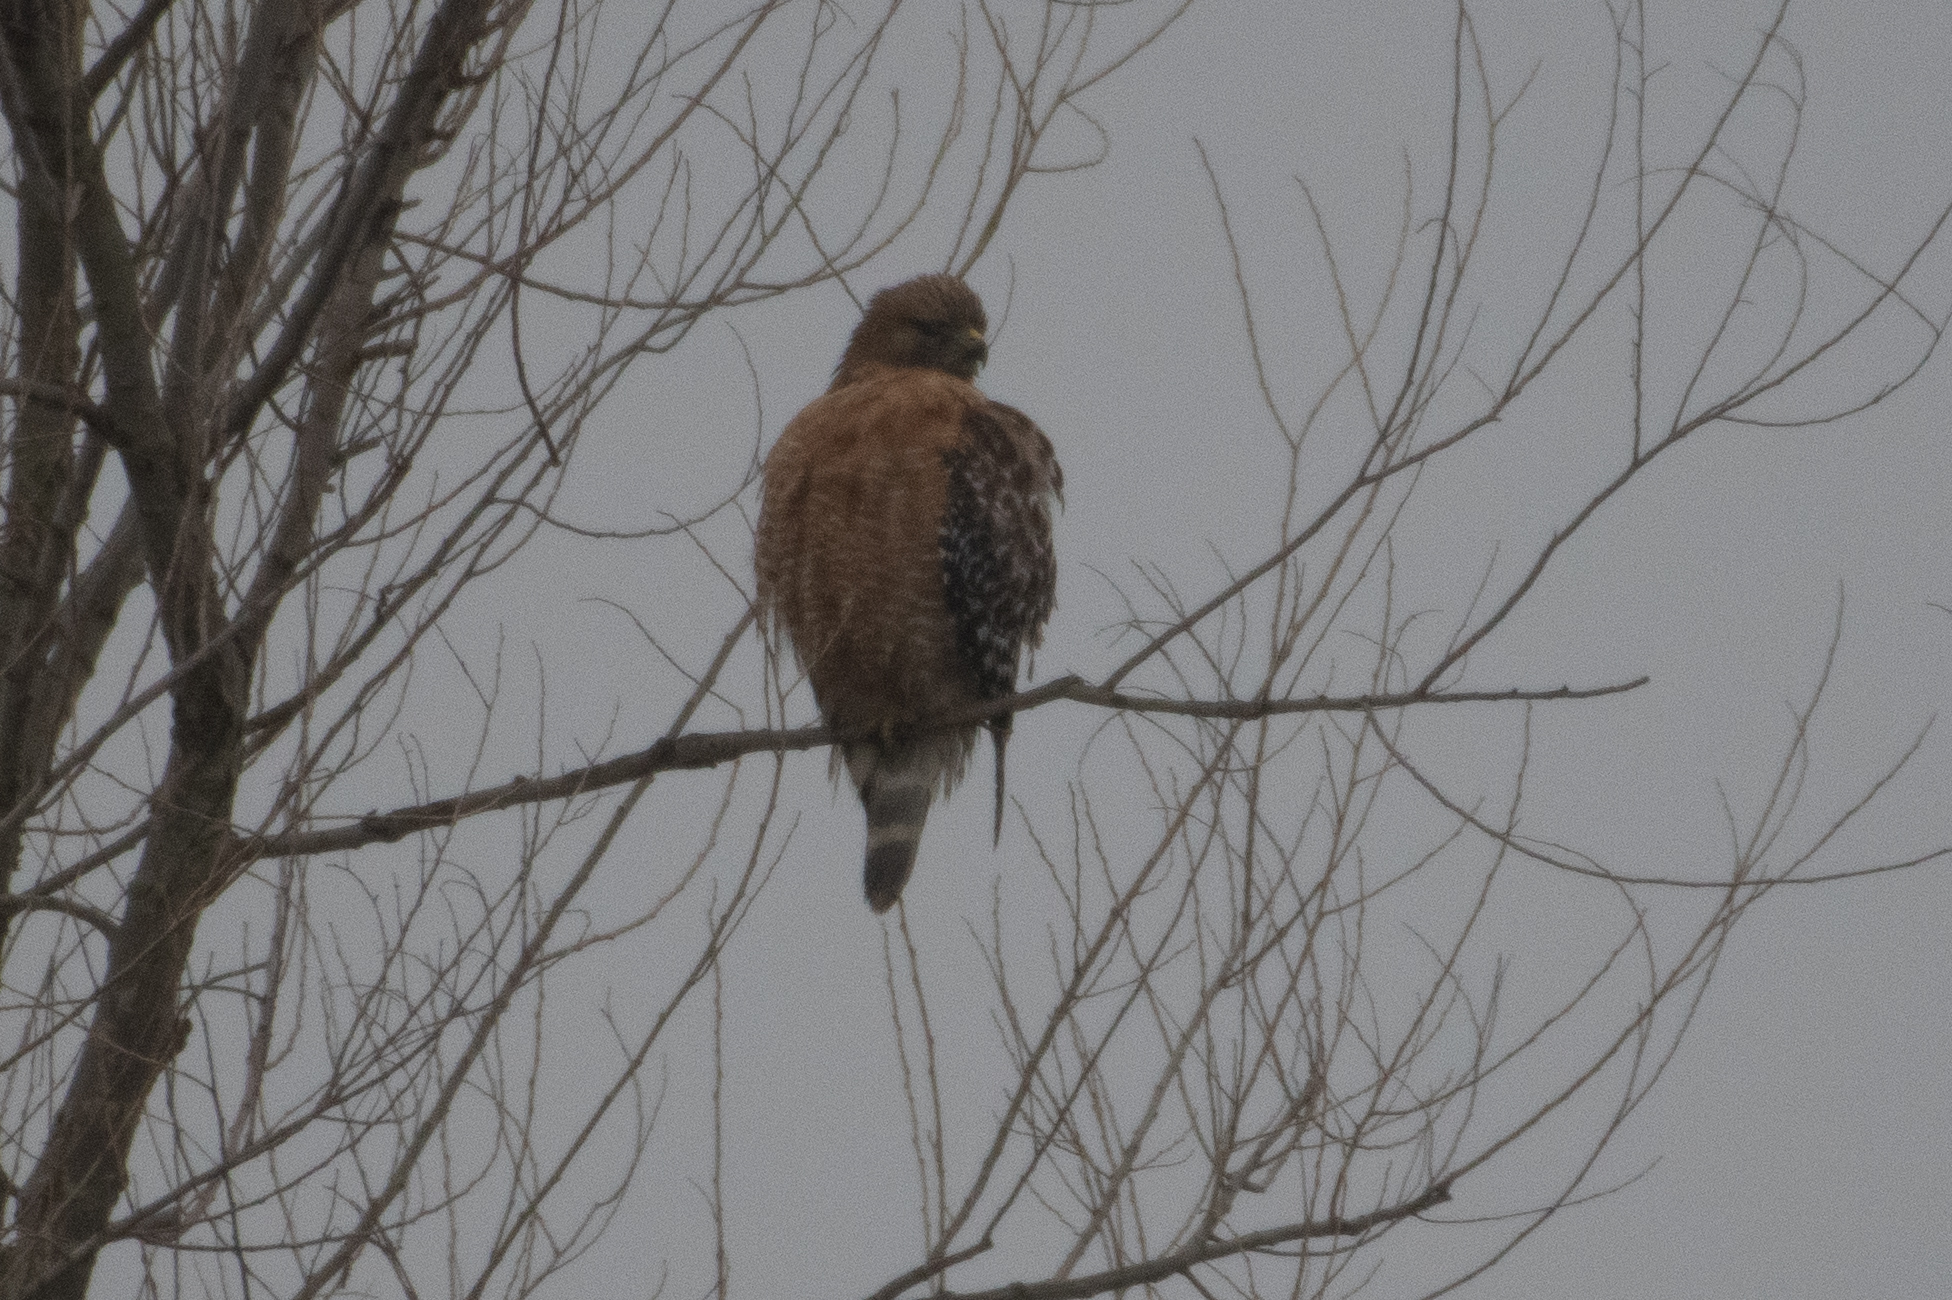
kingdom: Animalia
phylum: Chordata
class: Aves
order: Accipitriformes
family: Accipitridae
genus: Buteo
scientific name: Buteo lineatus
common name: Red-shouldered hawk
